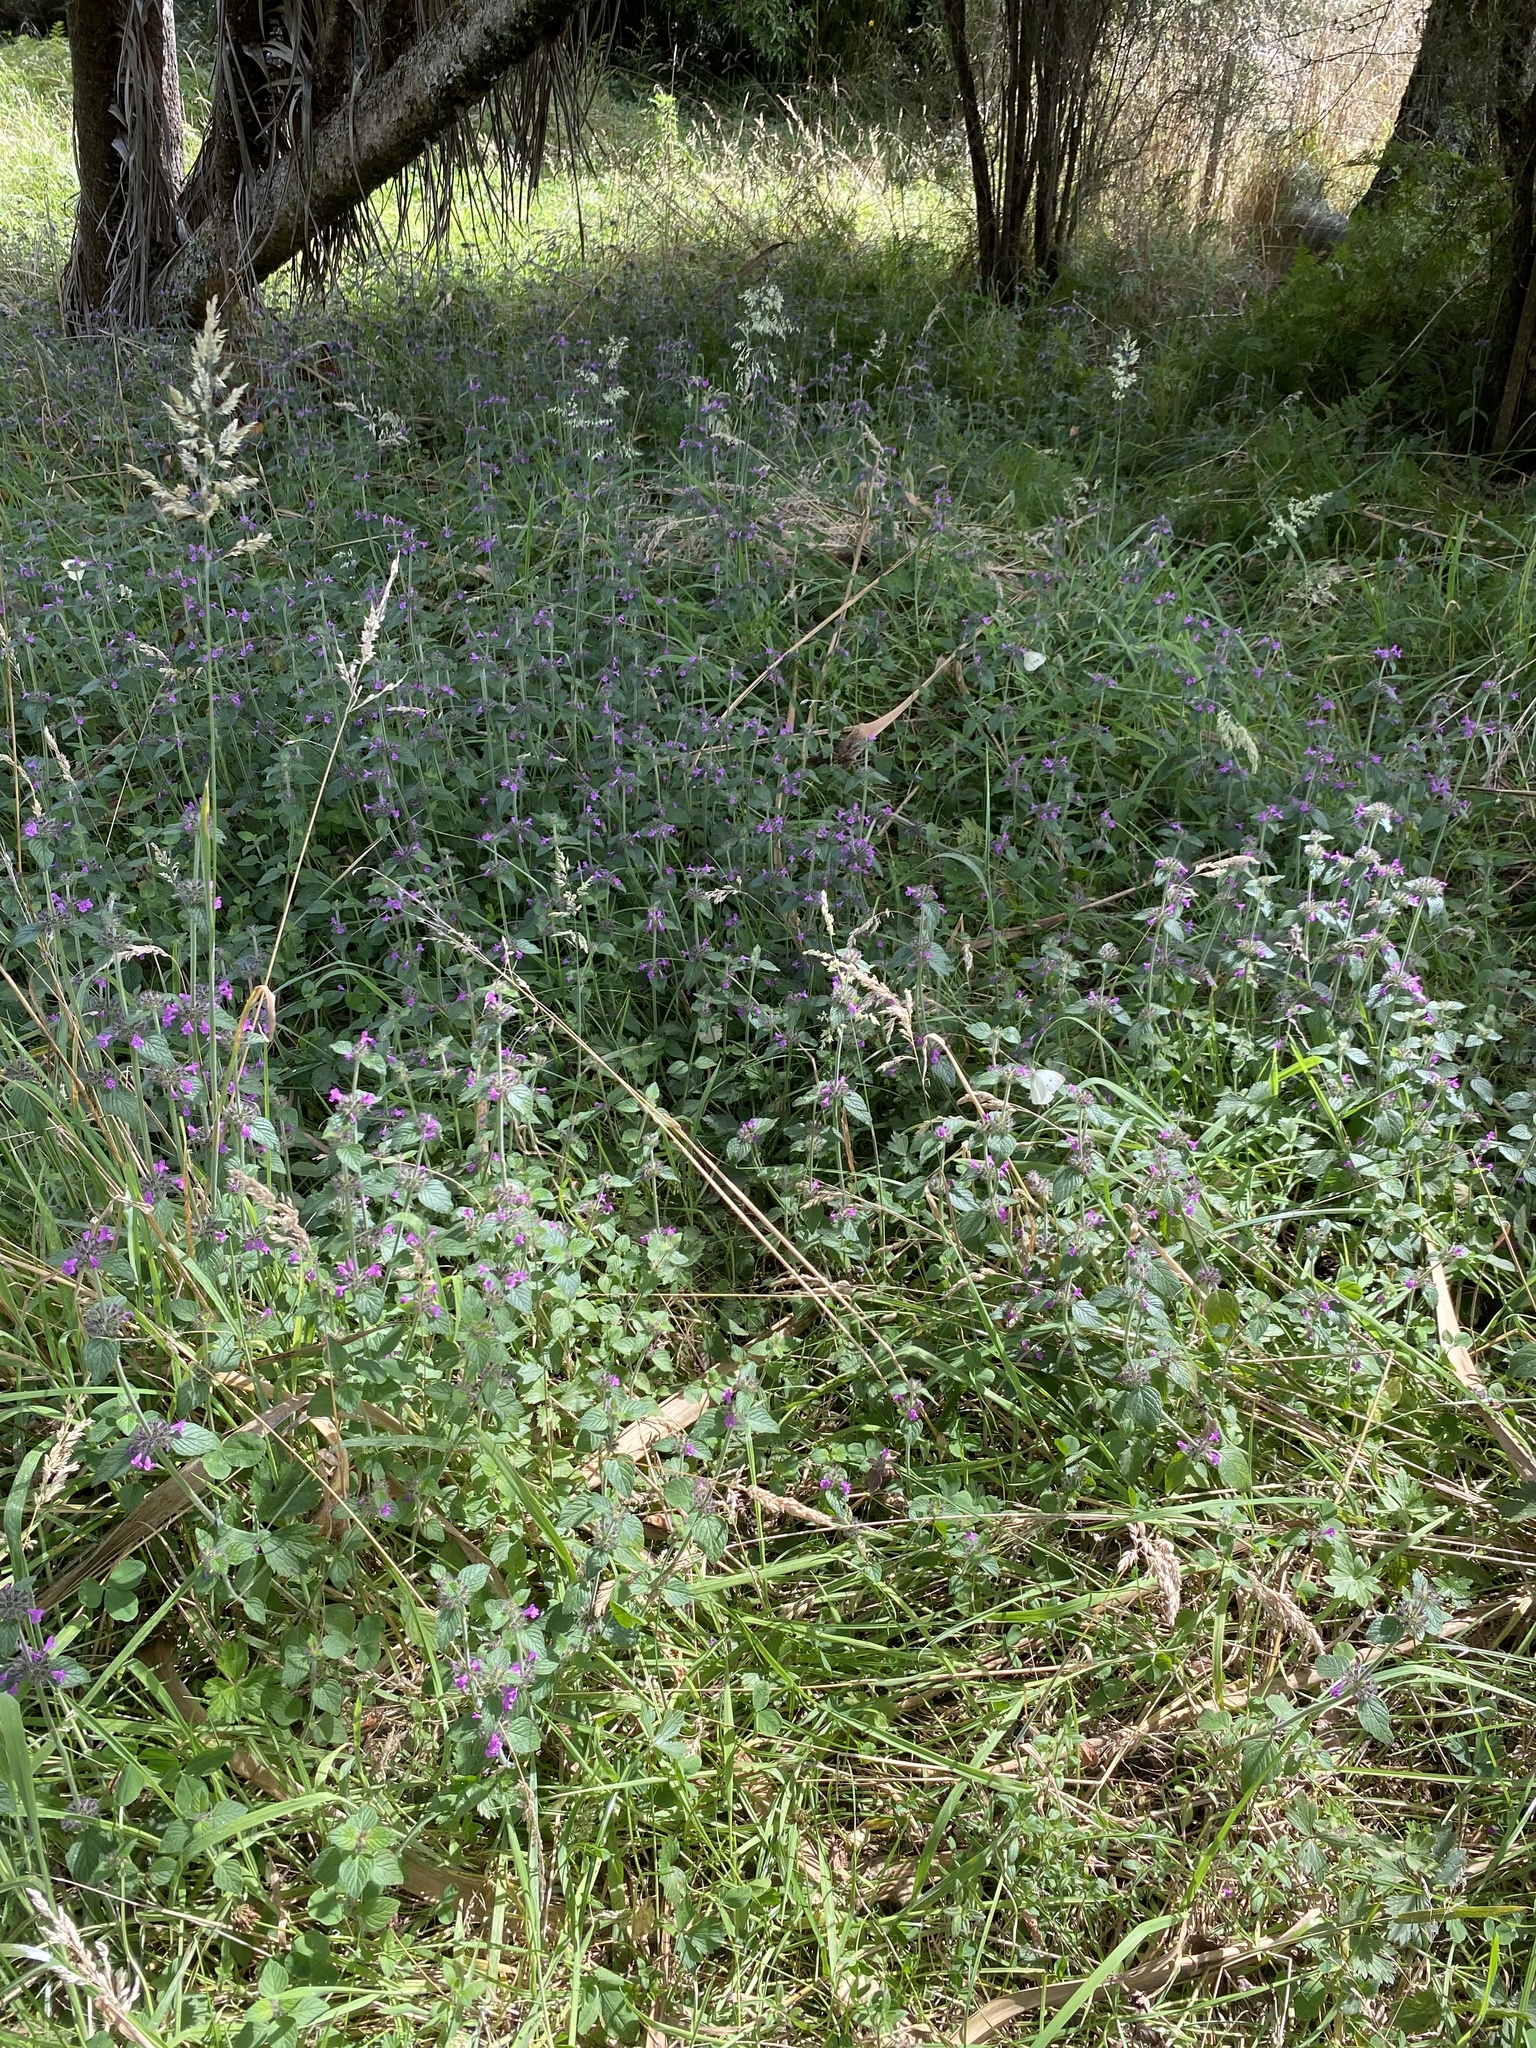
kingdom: Plantae
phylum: Tracheophyta
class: Magnoliopsida
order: Lamiales
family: Lamiaceae
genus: Clinopodium
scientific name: Clinopodium vulgare
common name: Wild basil
